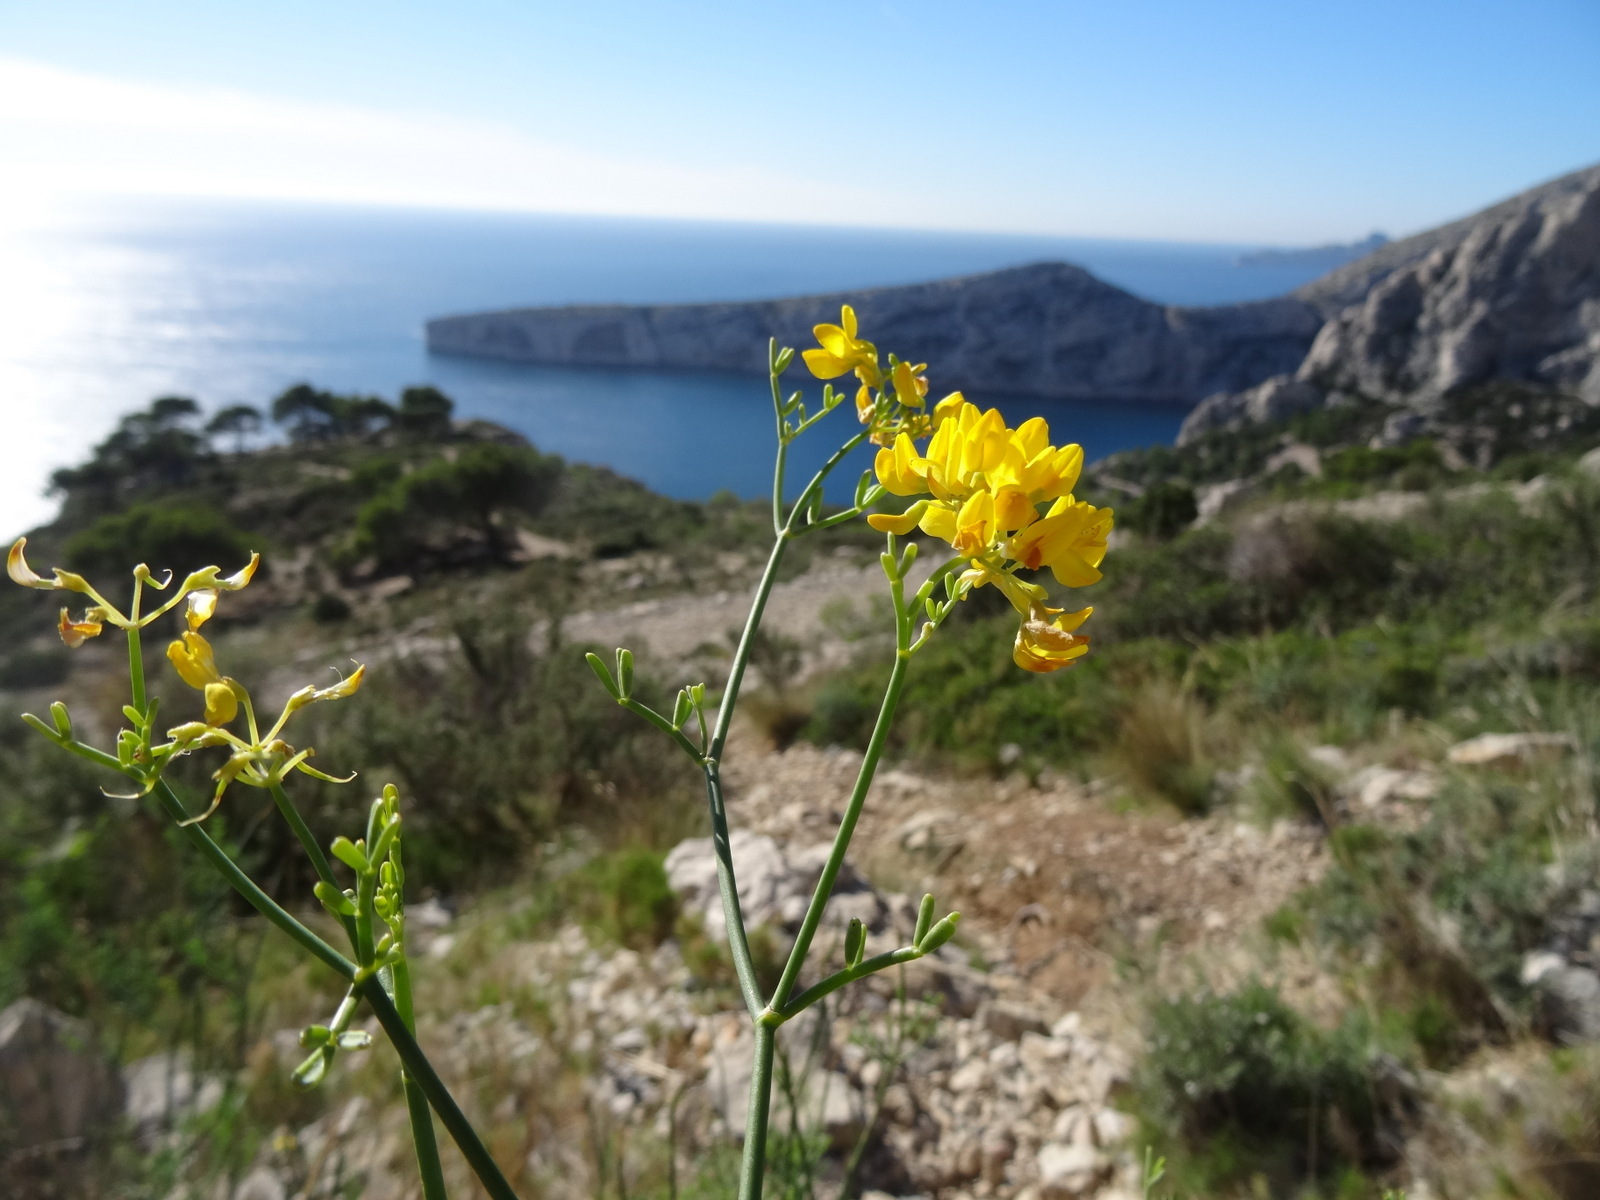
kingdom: Plantae
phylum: Tracheophyta
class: Magnoliopsida
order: Fabales
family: Fabaceae
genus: Coronilla
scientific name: Coronilla juncea
